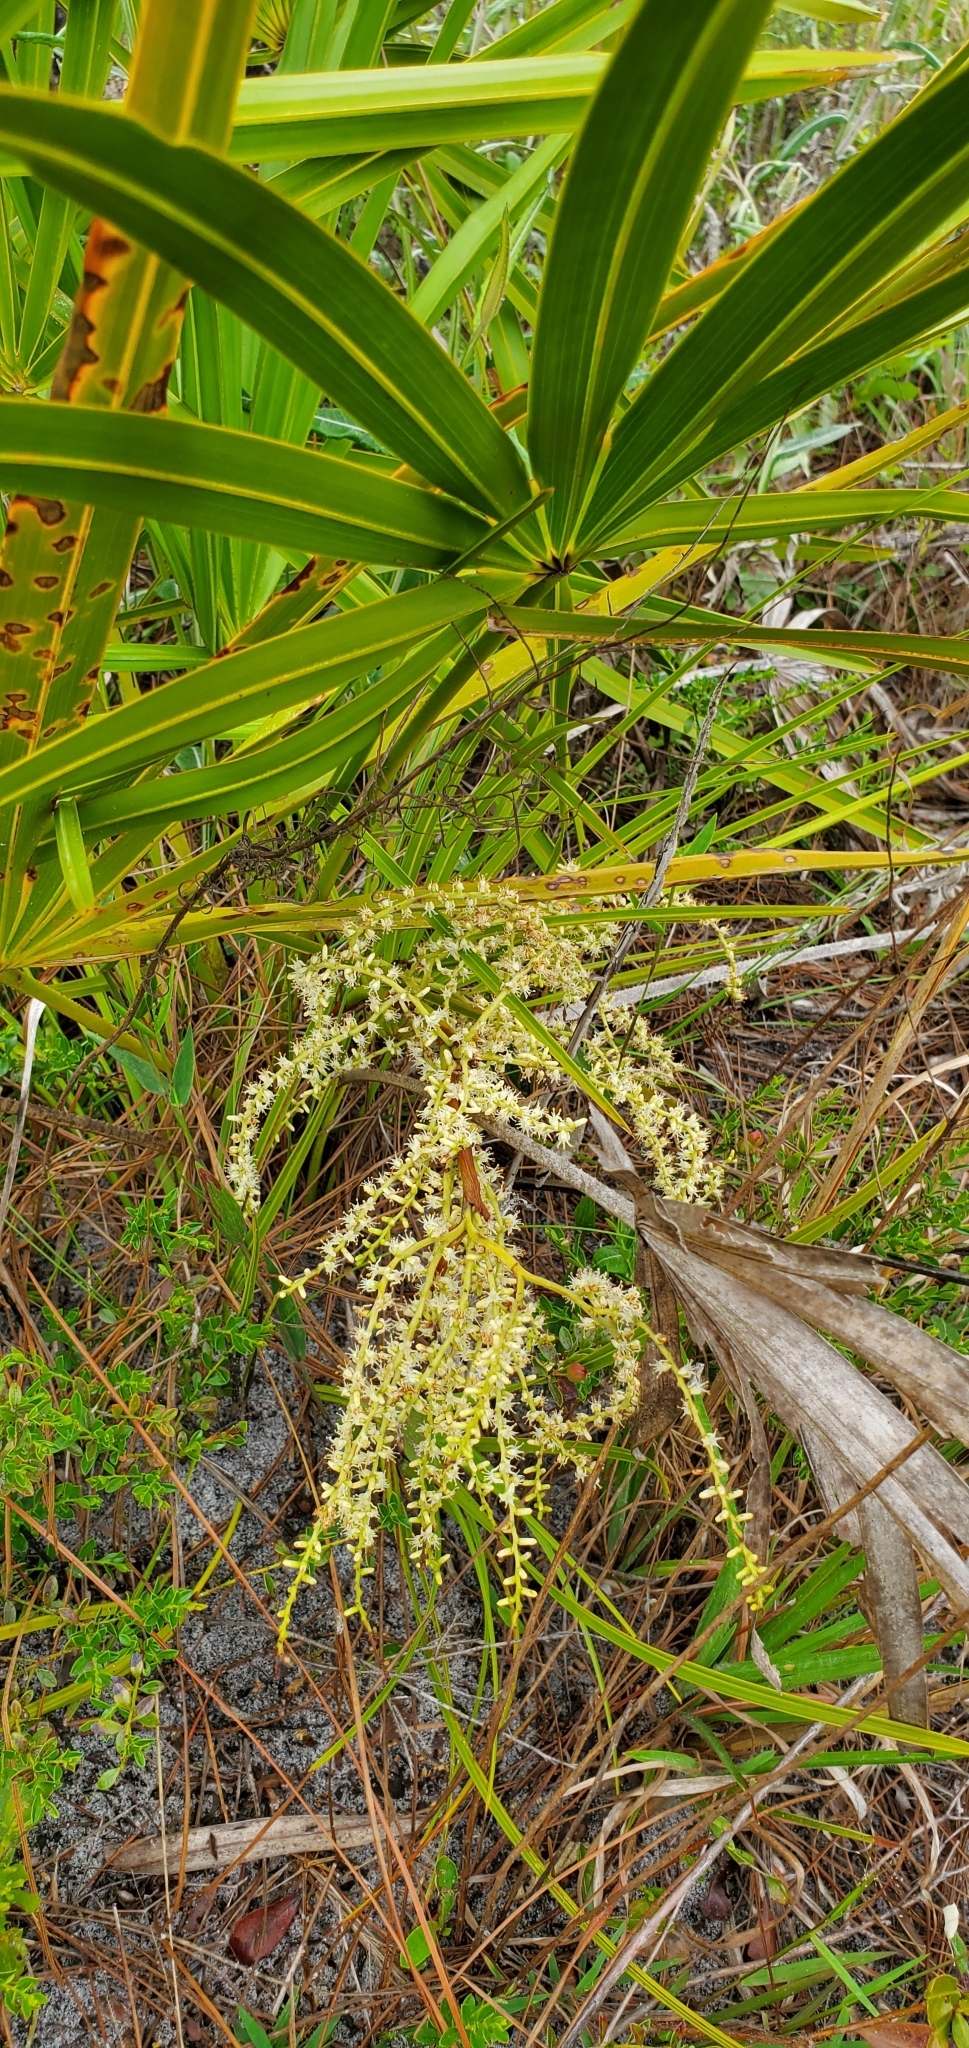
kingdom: Plantae
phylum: Tracheophyta
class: Liliopsida
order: Arecales
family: Arecaceae
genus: Serenoa
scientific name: Serenoa repens
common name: Saw-palmetto
